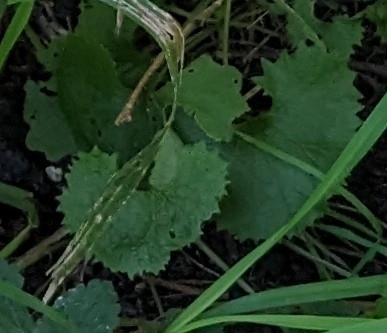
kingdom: Plantae
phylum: Tracheophyta
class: Magnoliopsida
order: Brassicales
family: Brassicaceae
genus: Alliaria
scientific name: Alliaria petiolata
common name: Garlic mustard
